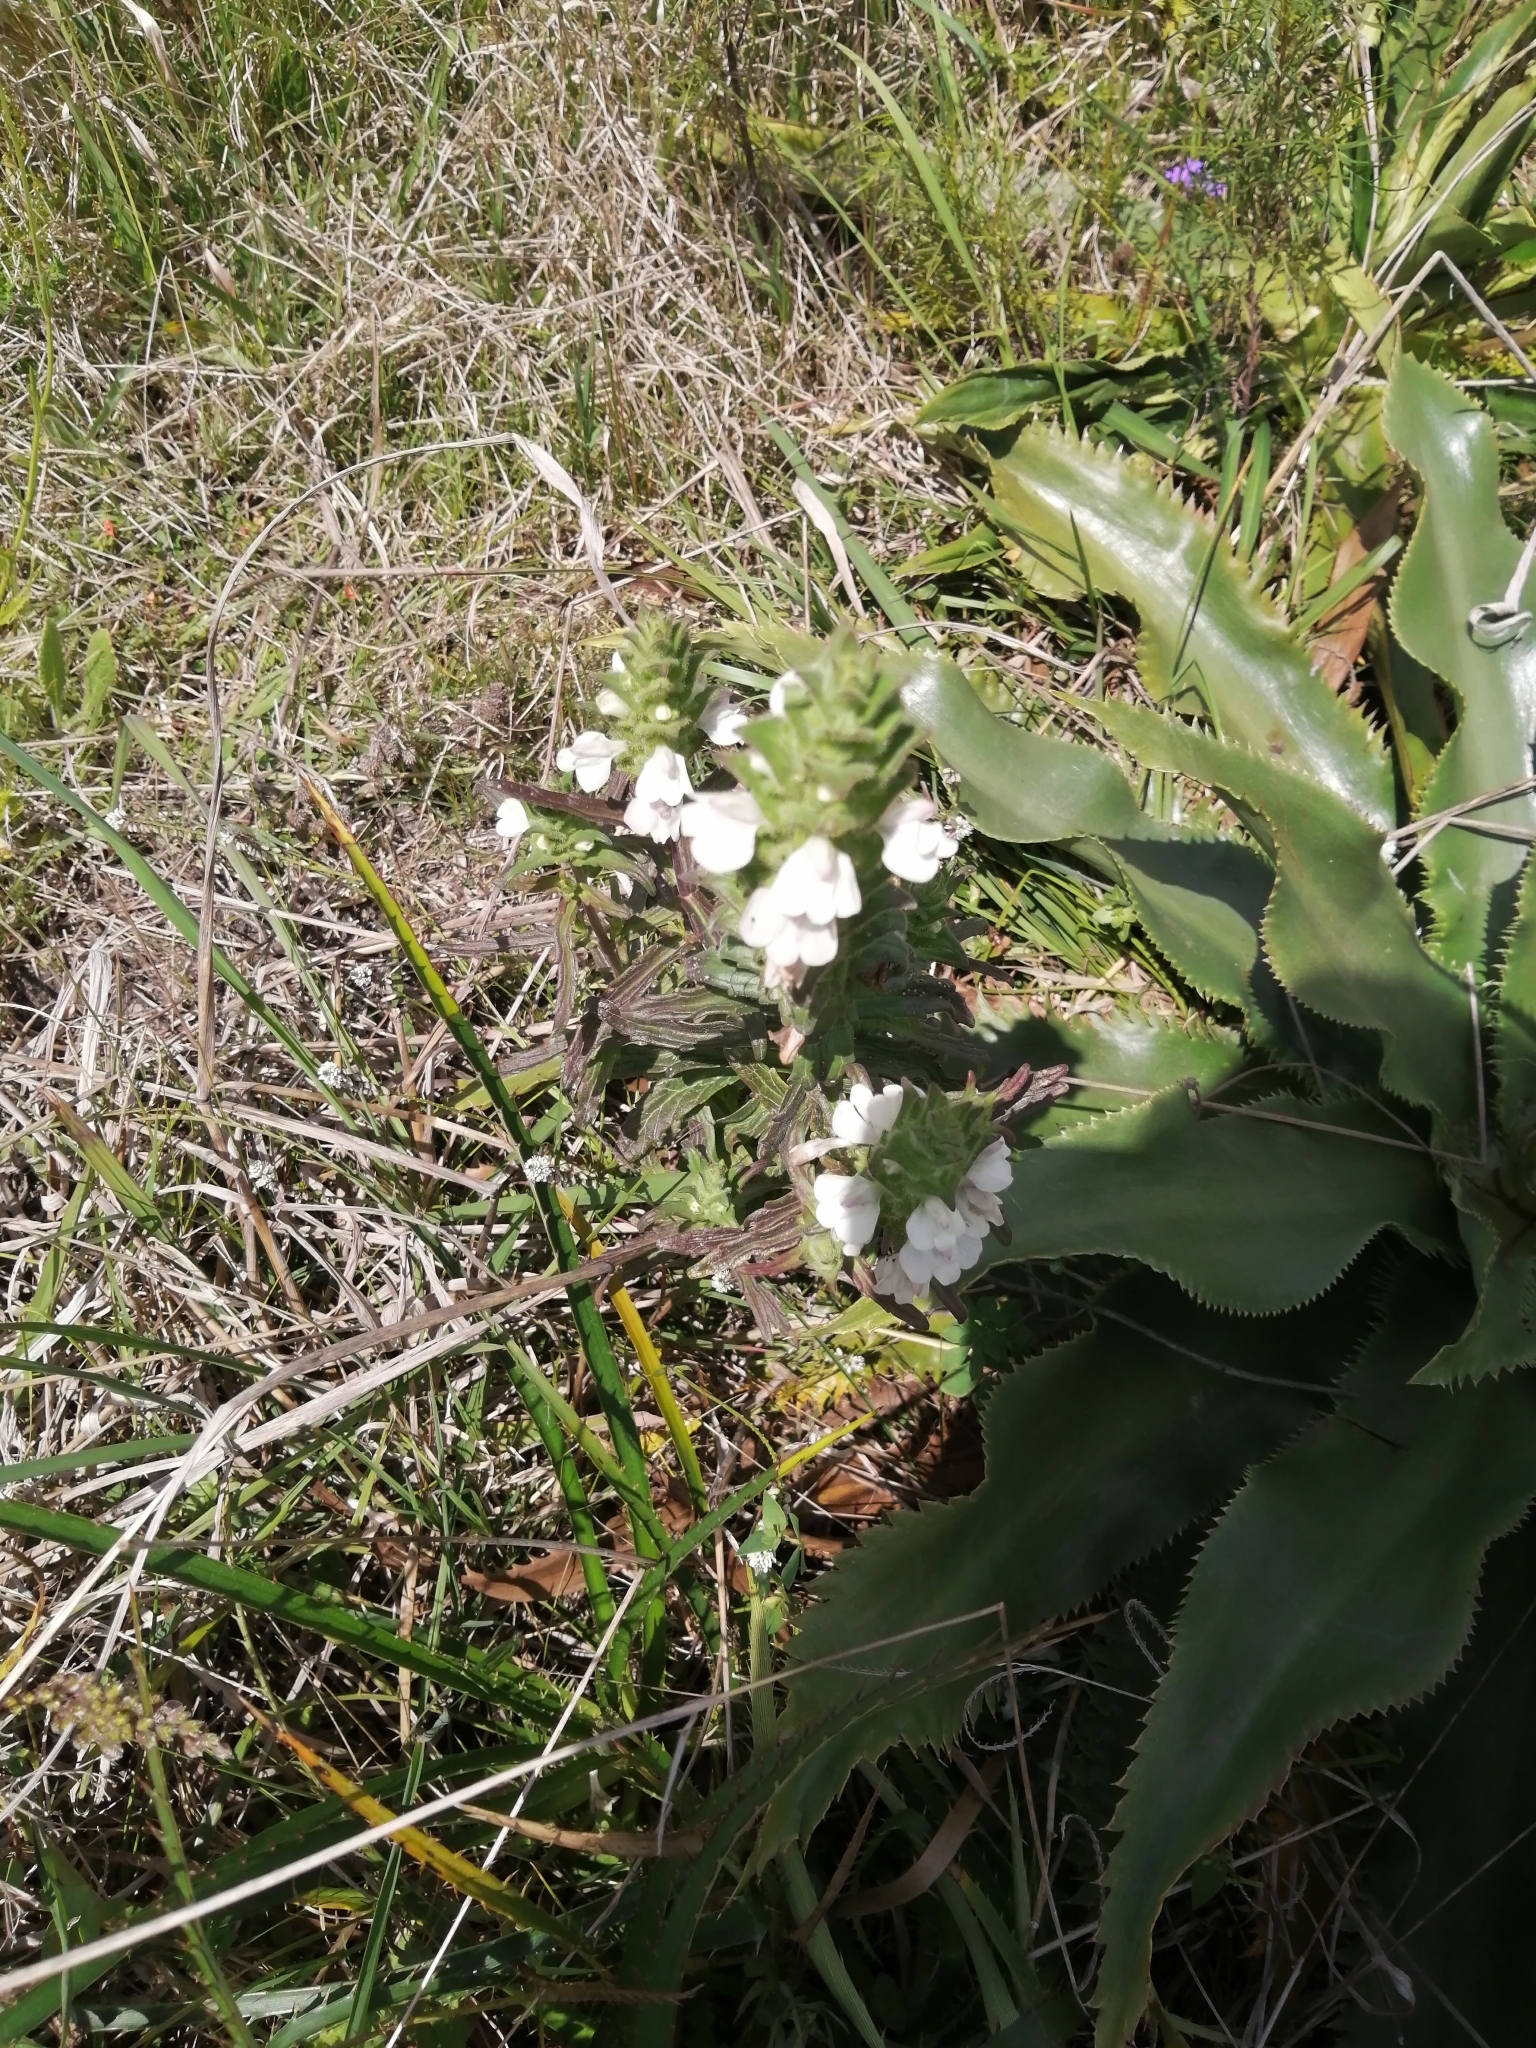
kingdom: Plantae
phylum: Tracheophyta
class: Magnoliopsida
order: Lamiales
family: Orobanchaceae
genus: Bellardia
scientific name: Bellardia trixago
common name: Mediterranean lineseed
